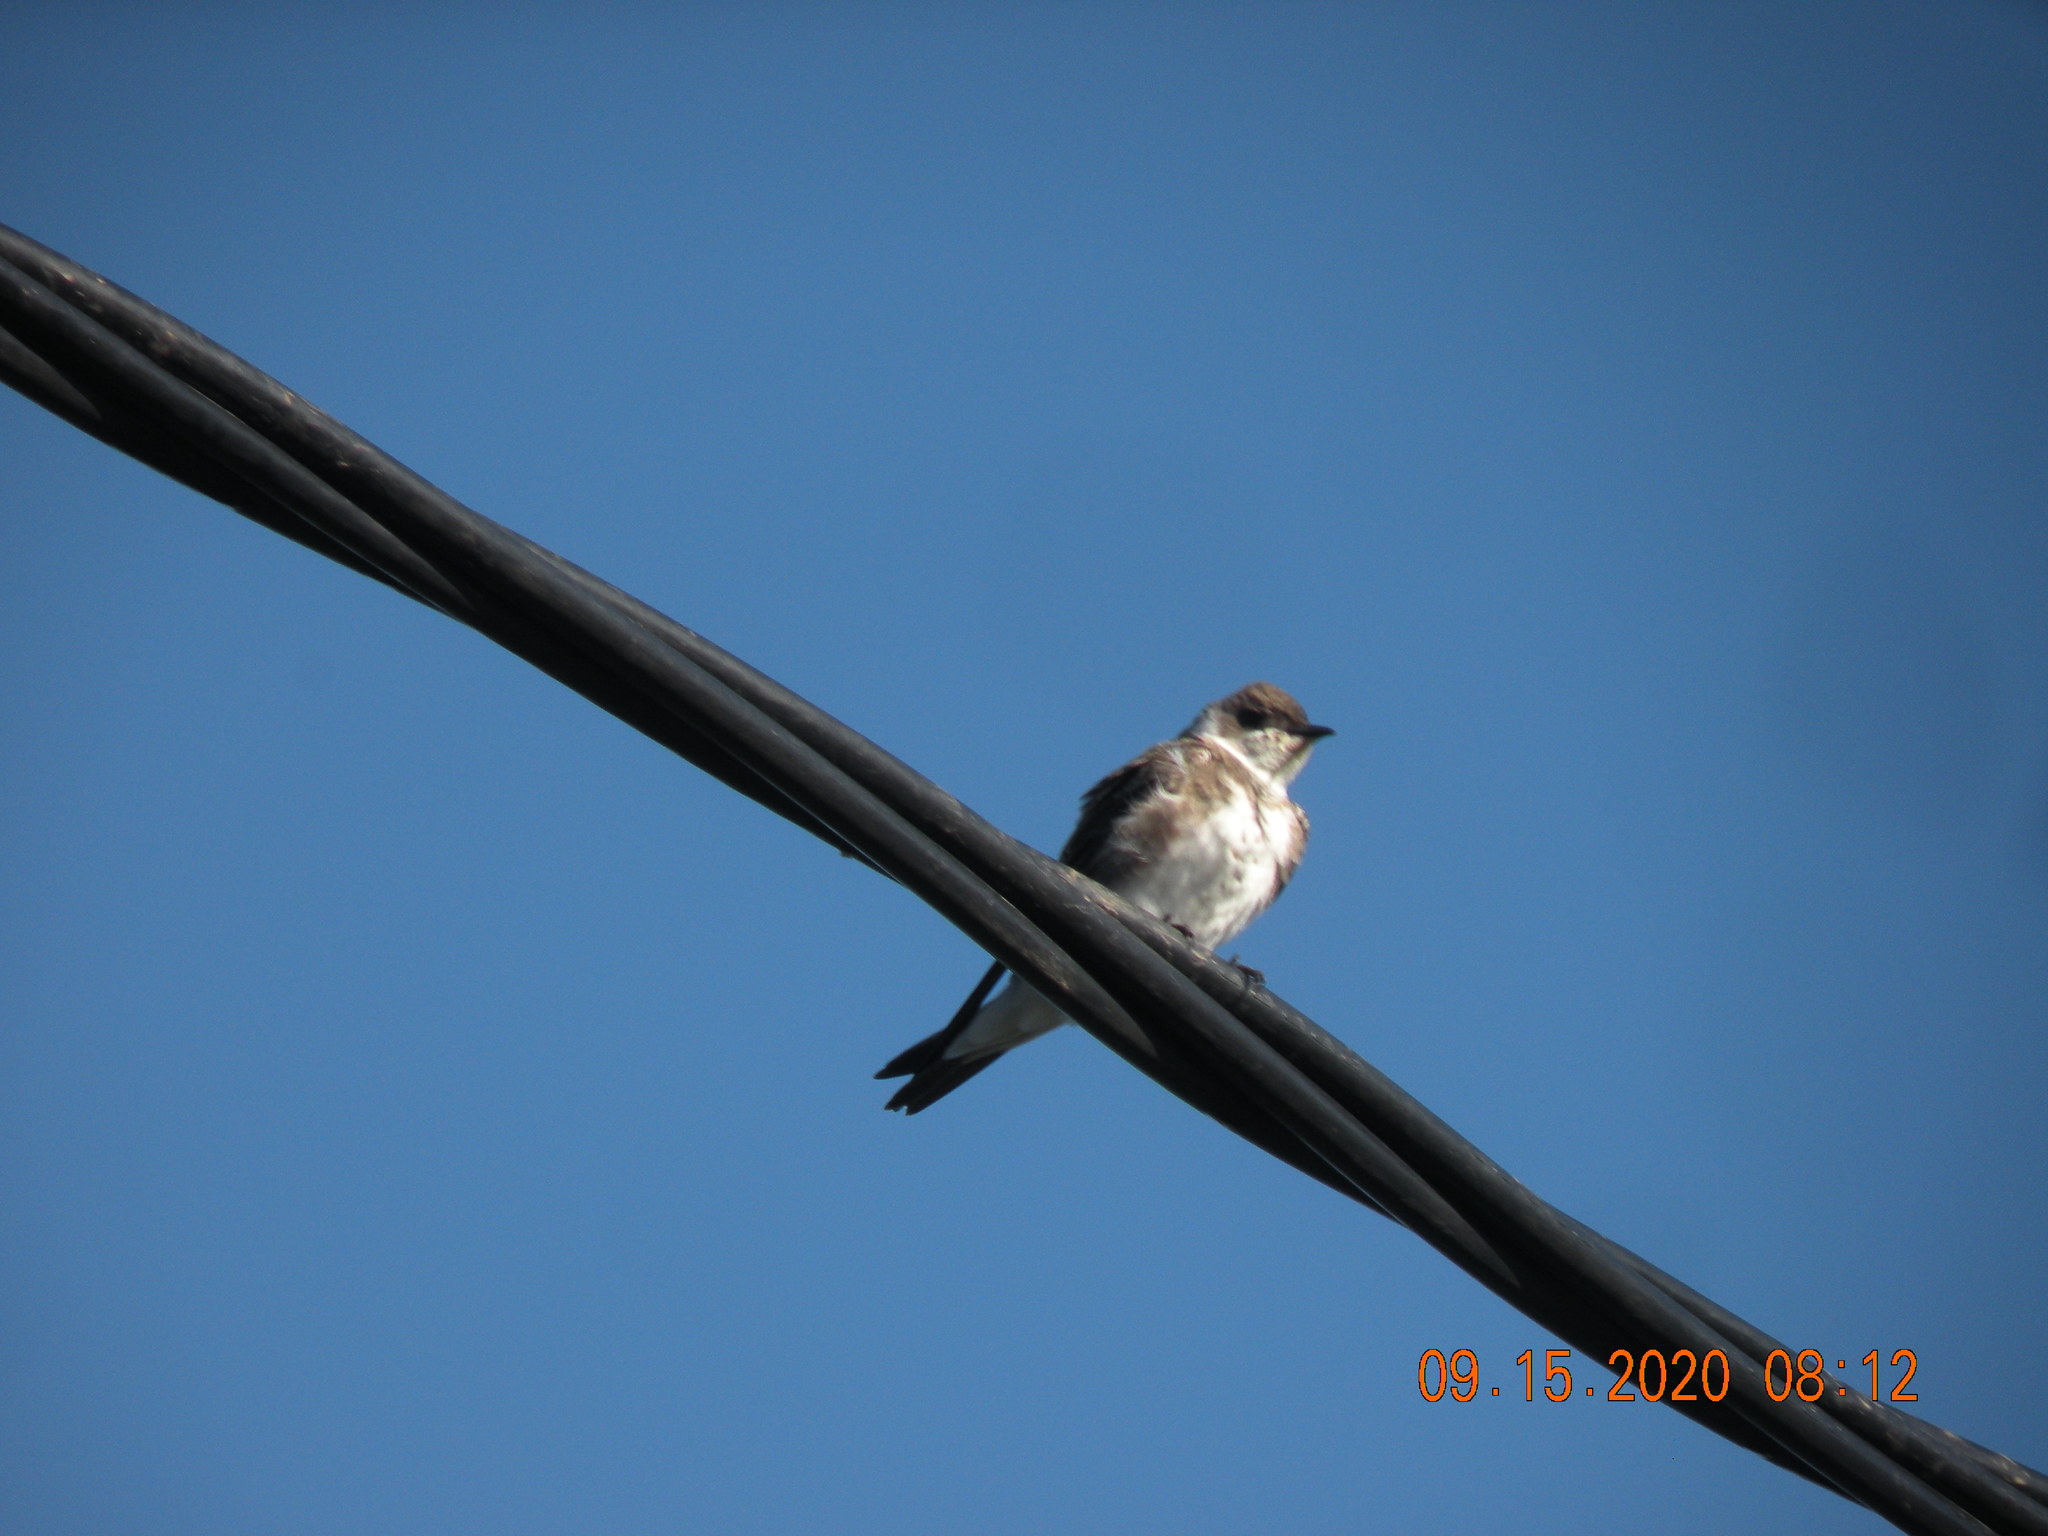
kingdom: Animalia
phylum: Chordata
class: Aves
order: Passeriformes
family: Hirundinidae
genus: Progne
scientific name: Progne tapera
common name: Brown-chested martin
